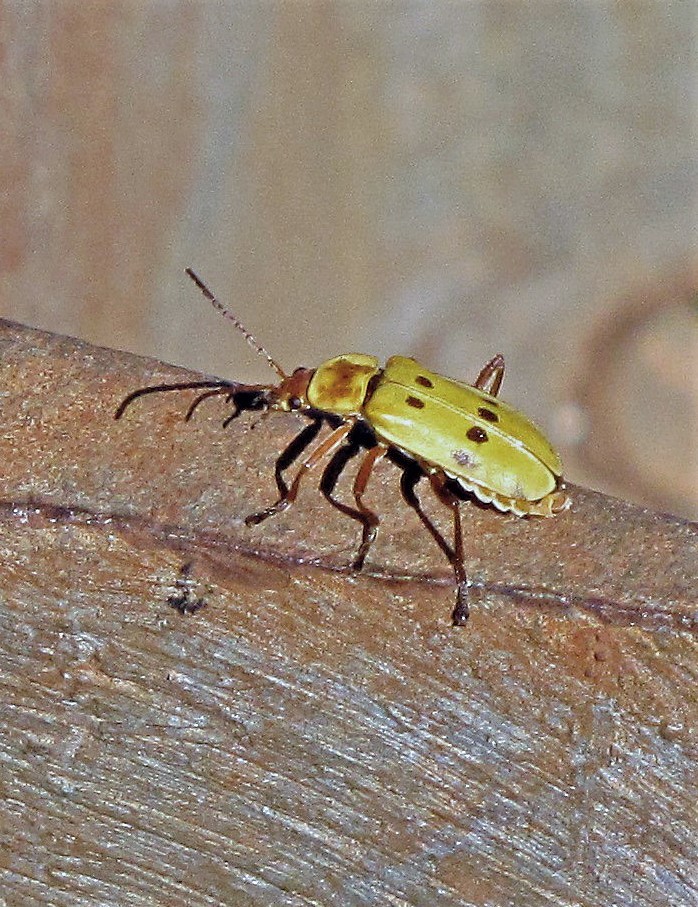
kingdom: Animalia
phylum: Arthropoda
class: Insecta
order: Coleoptera
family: Cantharidae
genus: Chauliognathus
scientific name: Chauliognathus
